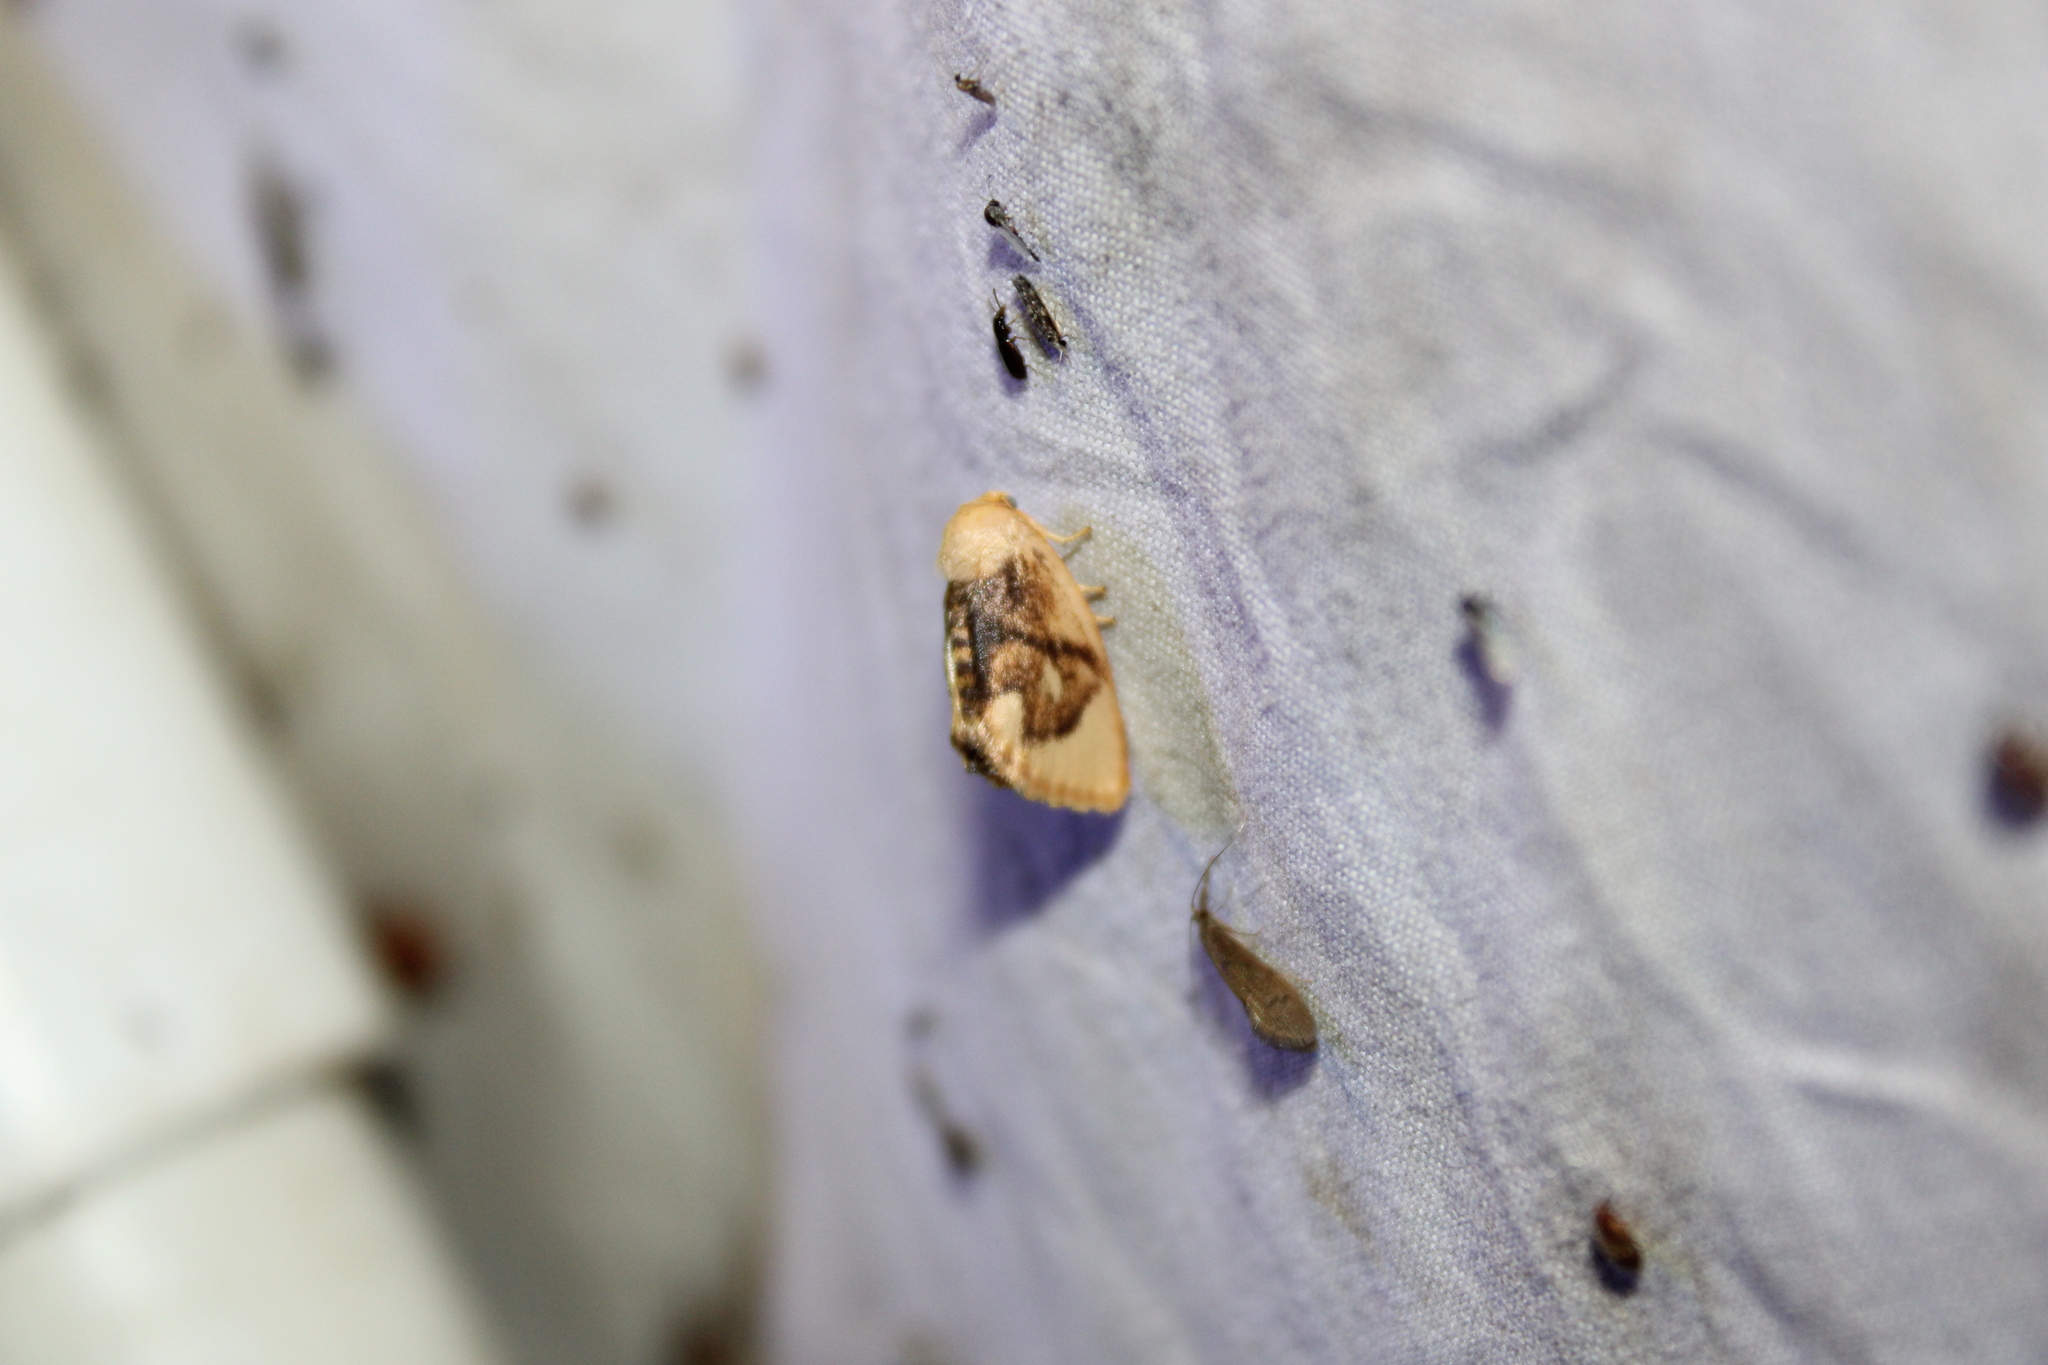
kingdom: Animalia
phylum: Arthropoda
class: Insecta
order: Lepidoptera
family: Limacodidae
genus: Tortricidia
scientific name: Tortricidia flexuosa
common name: Abbreviated button slug moth
